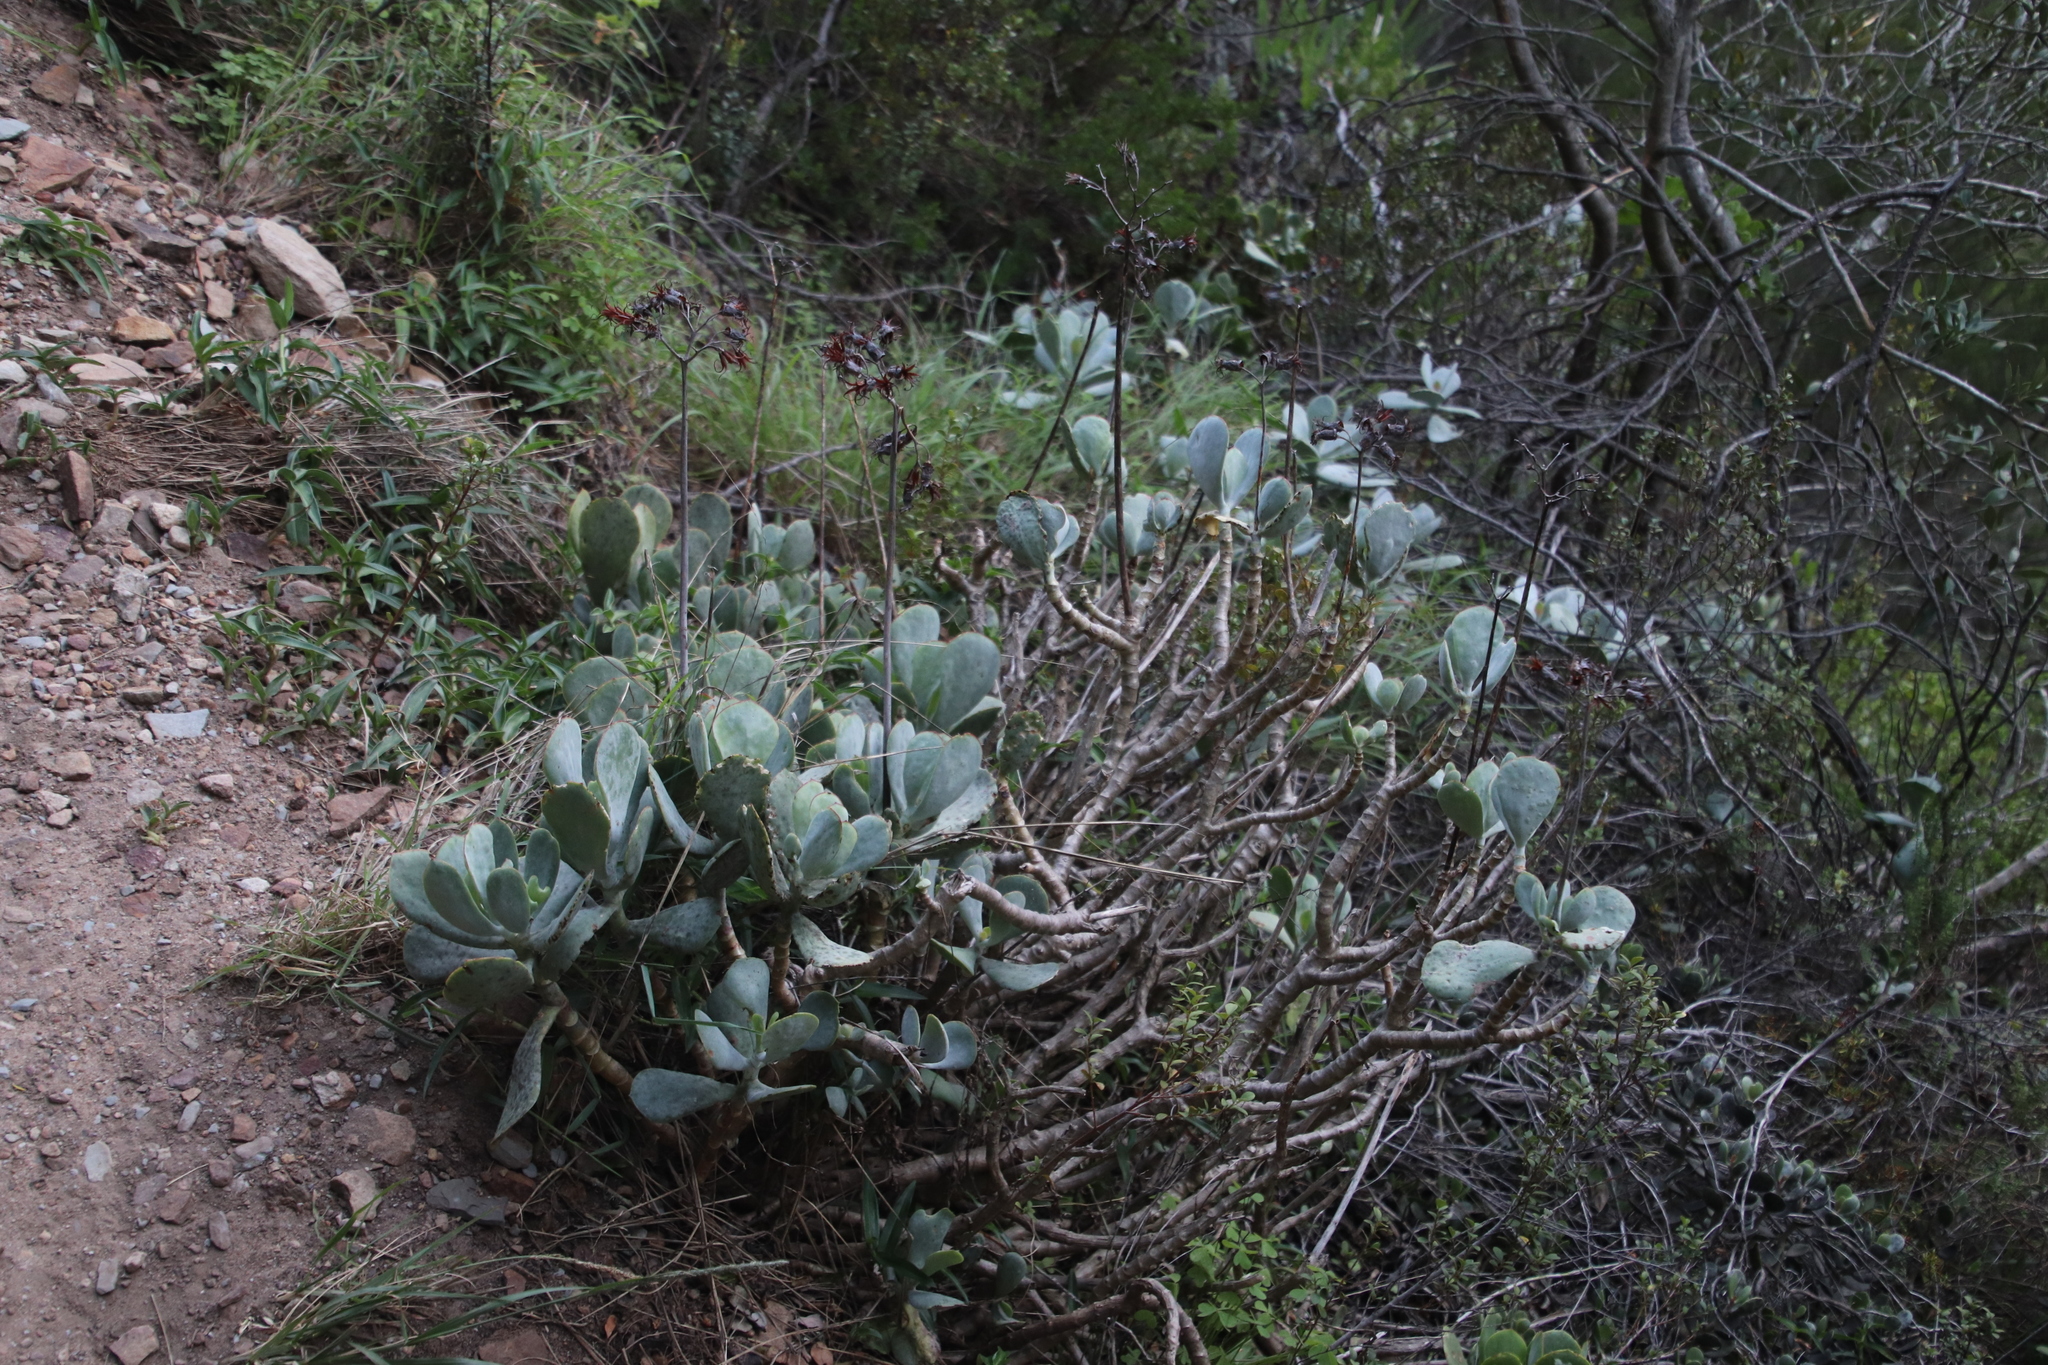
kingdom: Plantae
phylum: Tracheophyta
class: Magnoliopsida
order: Saxifragales
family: Crassulaceae
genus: Cotyledon
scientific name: Cotyledon orbiculata
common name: Pig's ear
